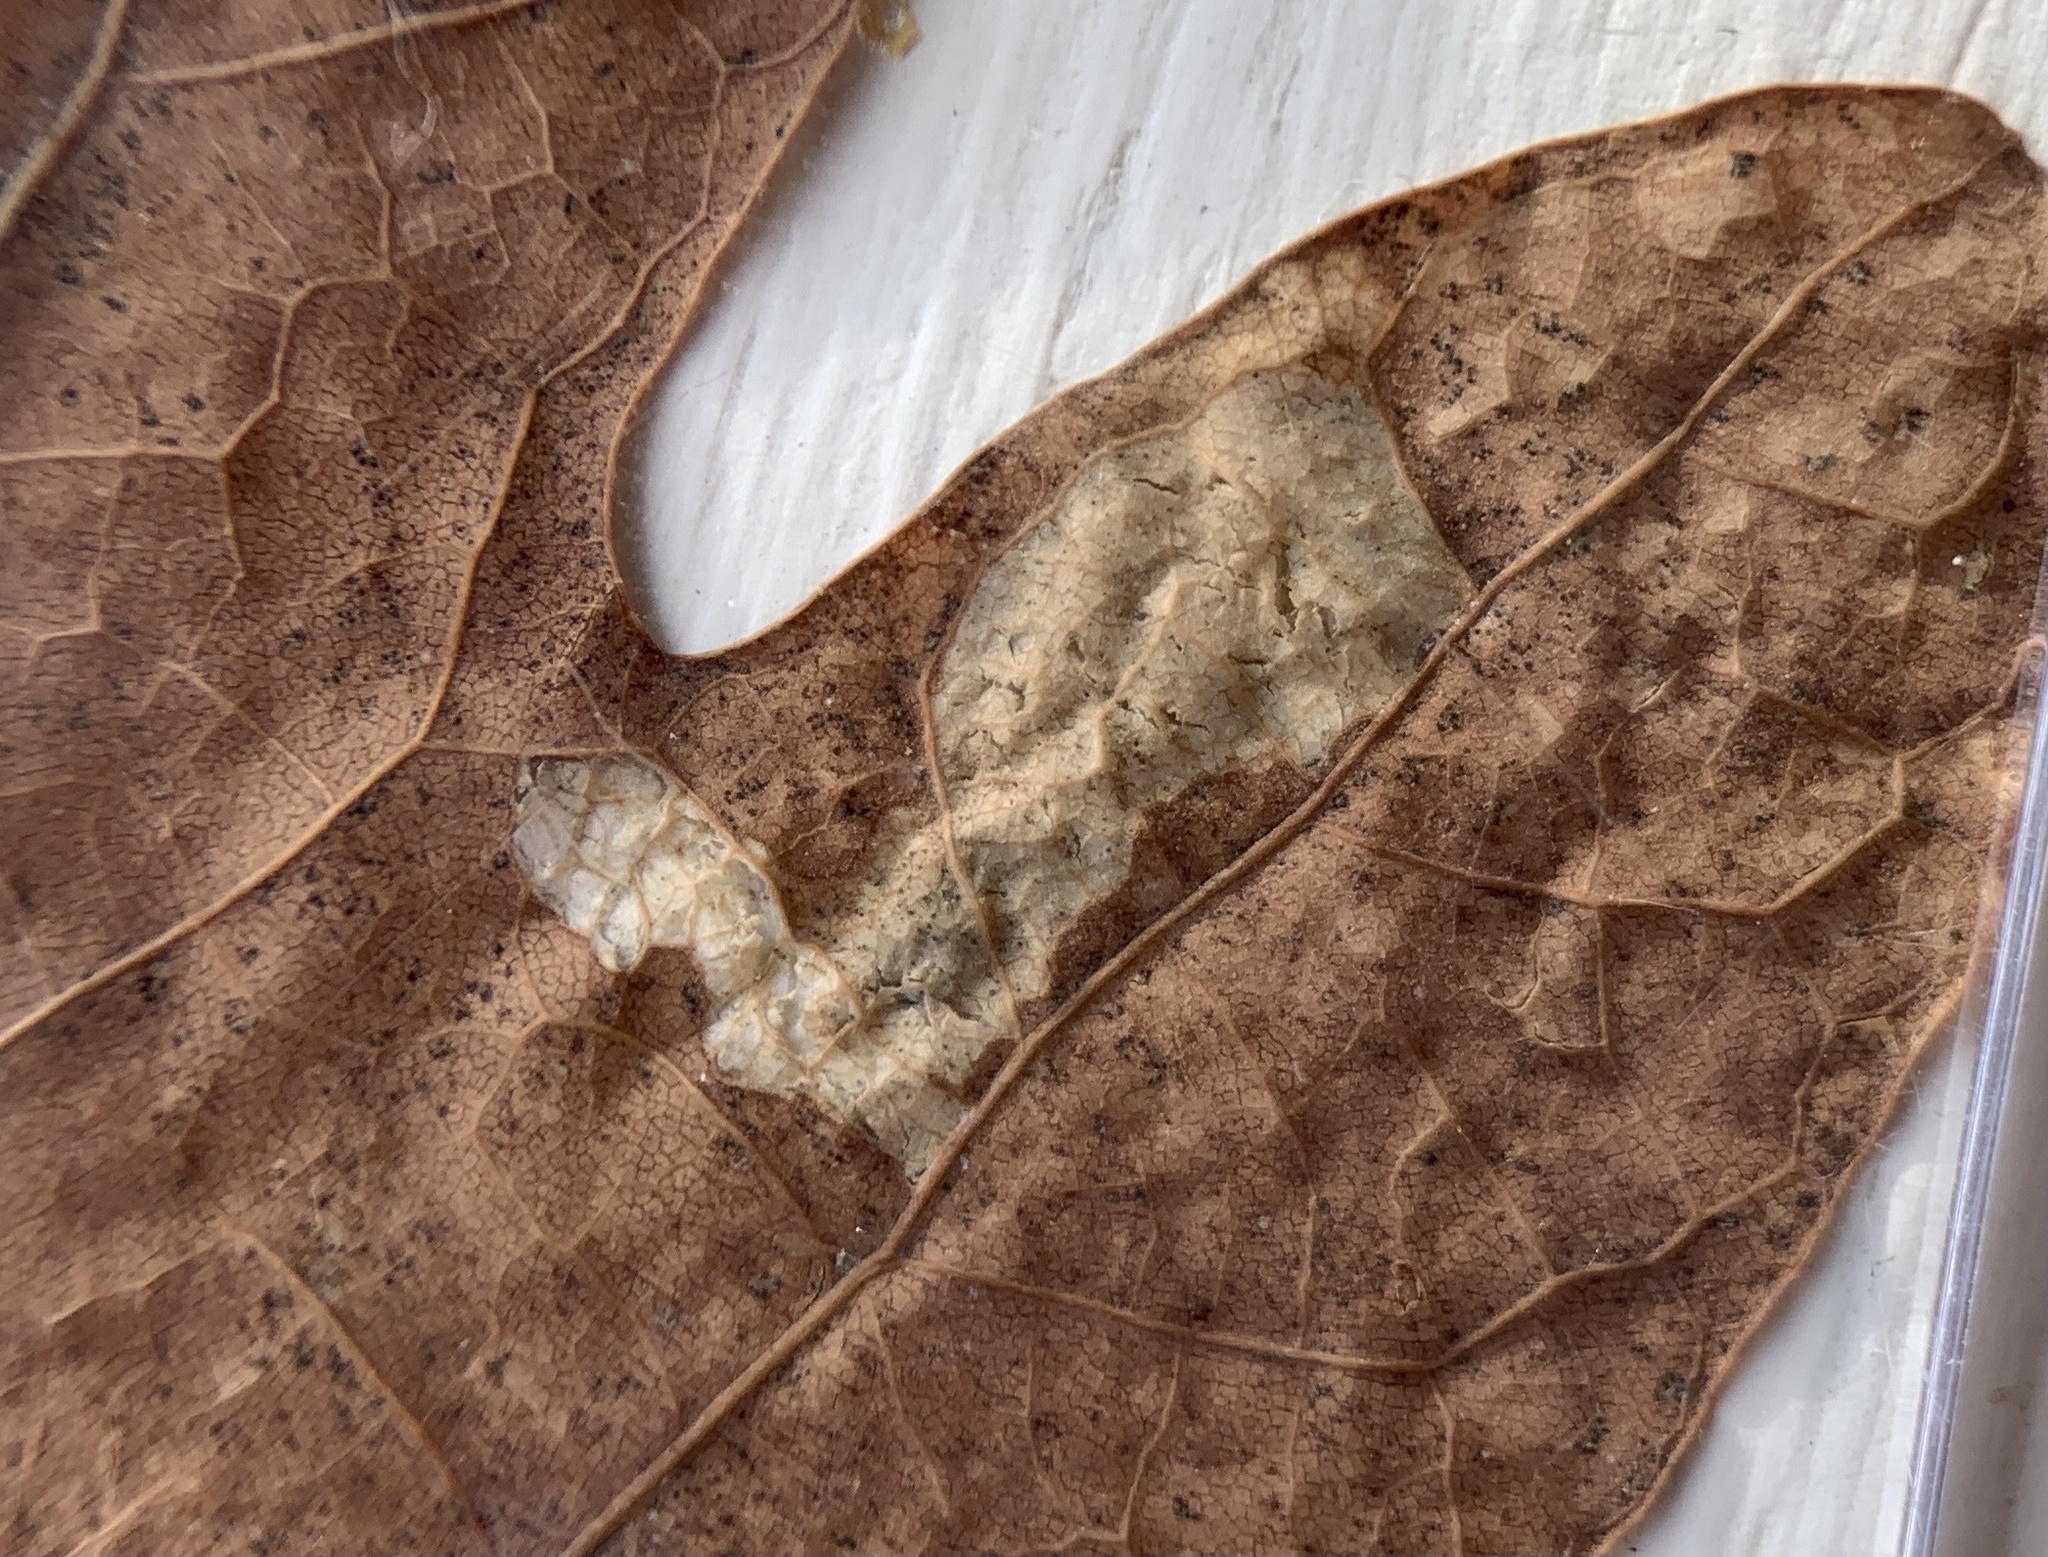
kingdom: Animalia
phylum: Arthropoda
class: Insecta
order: Lepidoptera
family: Tischeriidae
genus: Coptotriche
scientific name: Coptotriche castaneaeella
